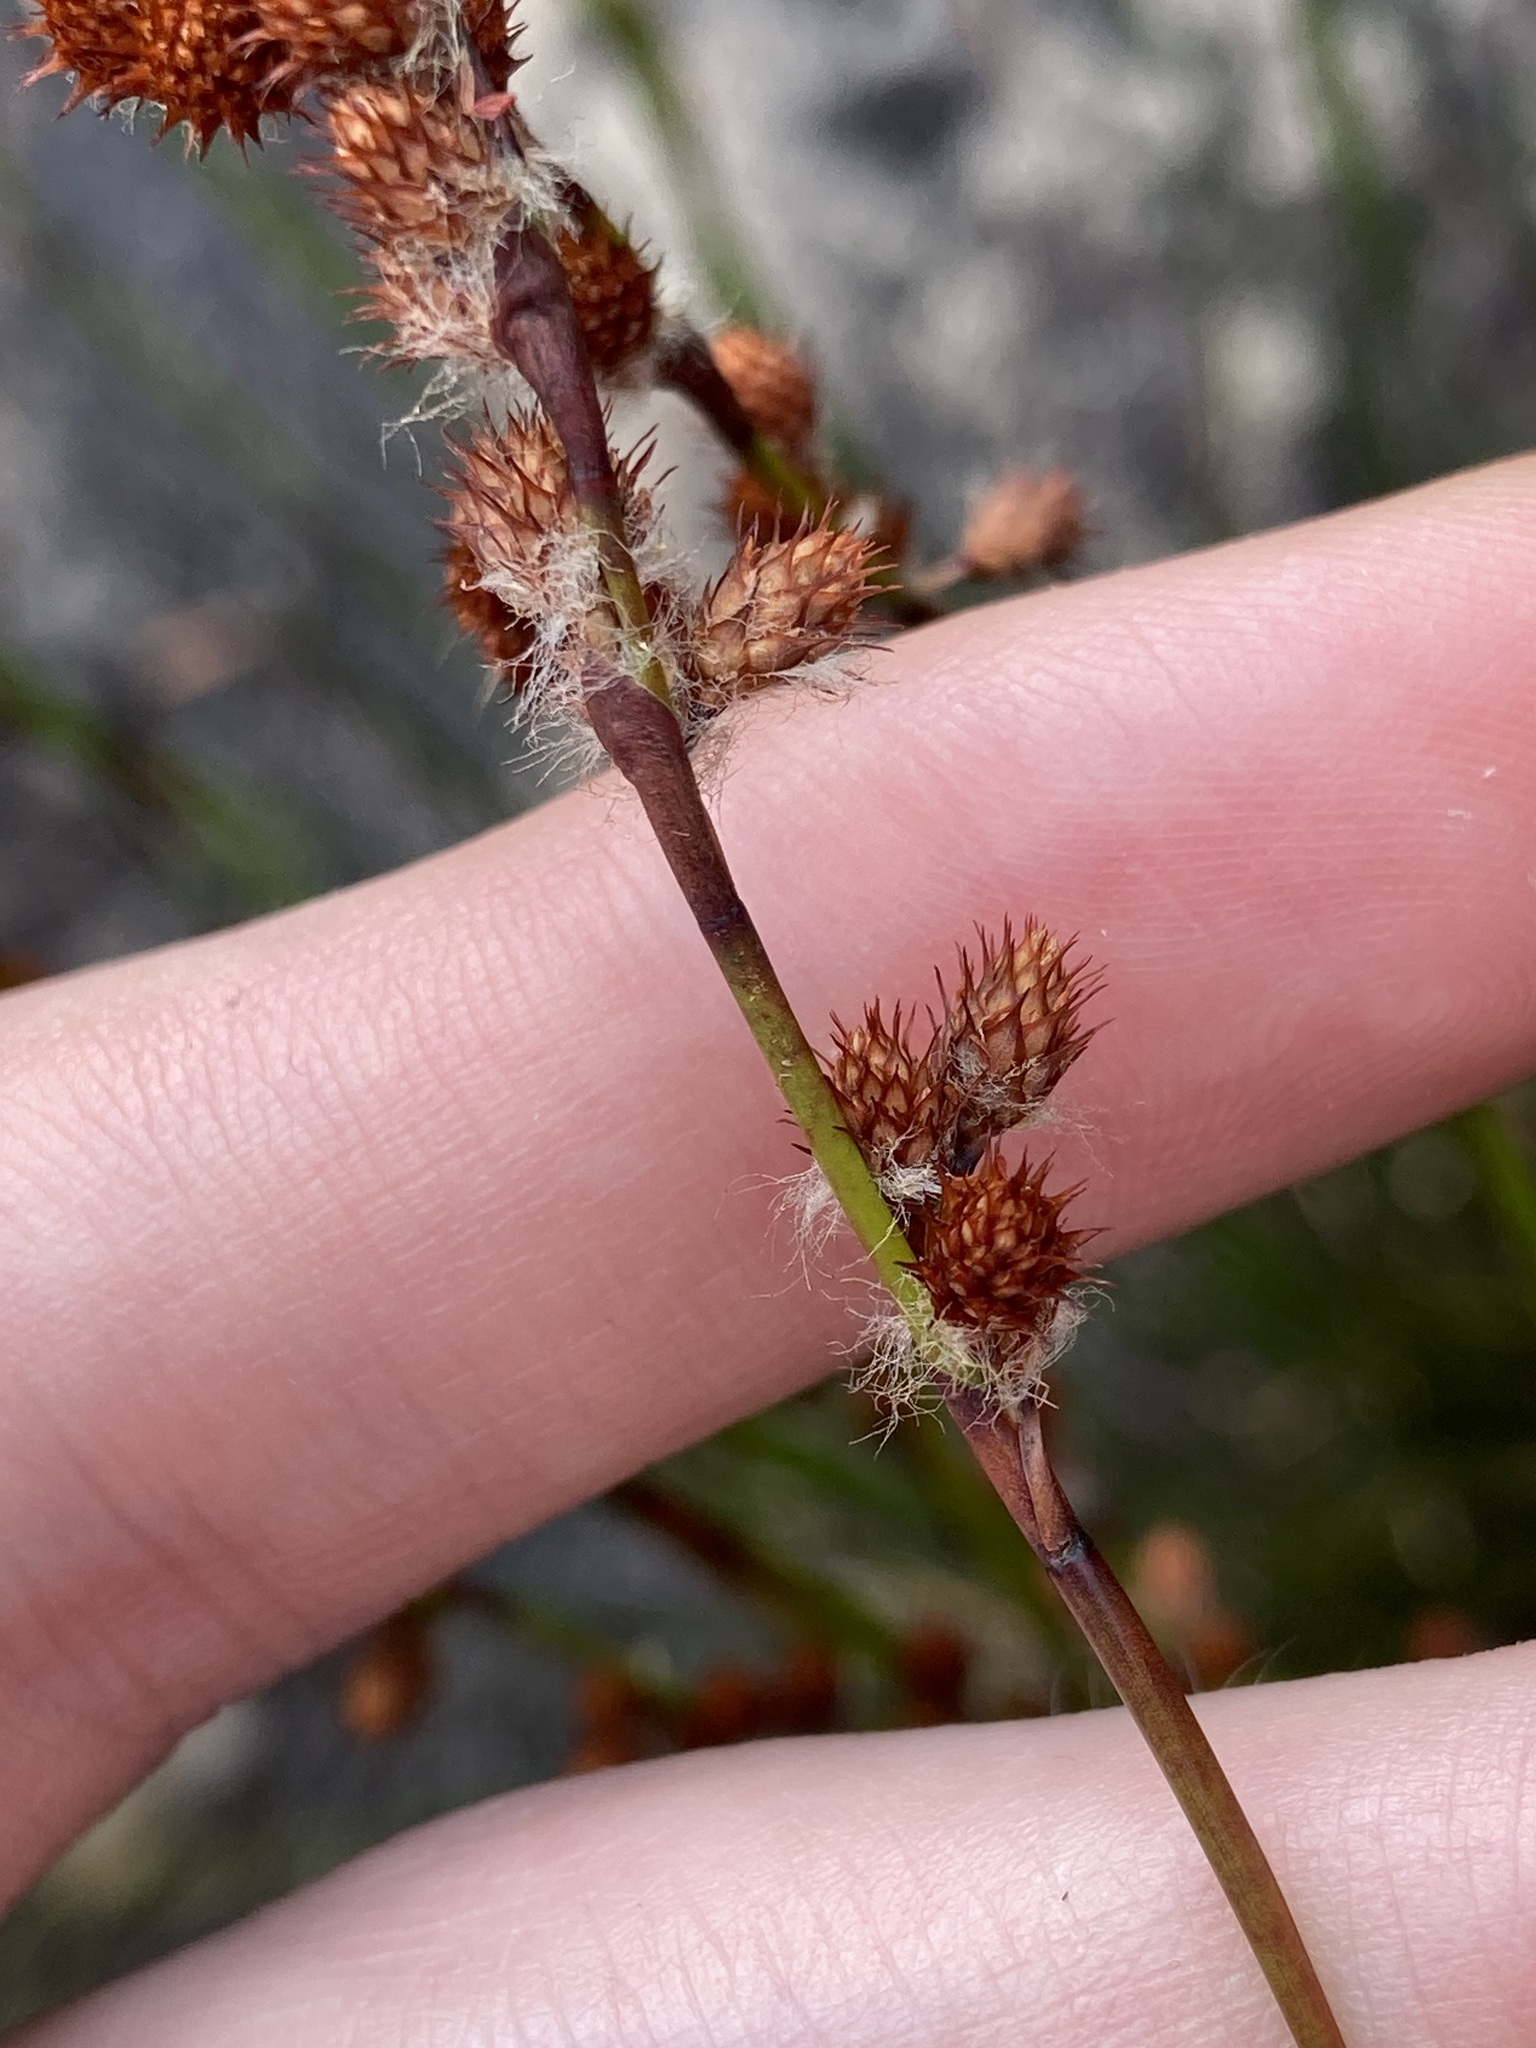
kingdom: Plantae
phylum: Tracheophyta
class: Liliopsida
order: Poales
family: Restionaceae
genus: Baloskion
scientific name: Baloskion pallens
